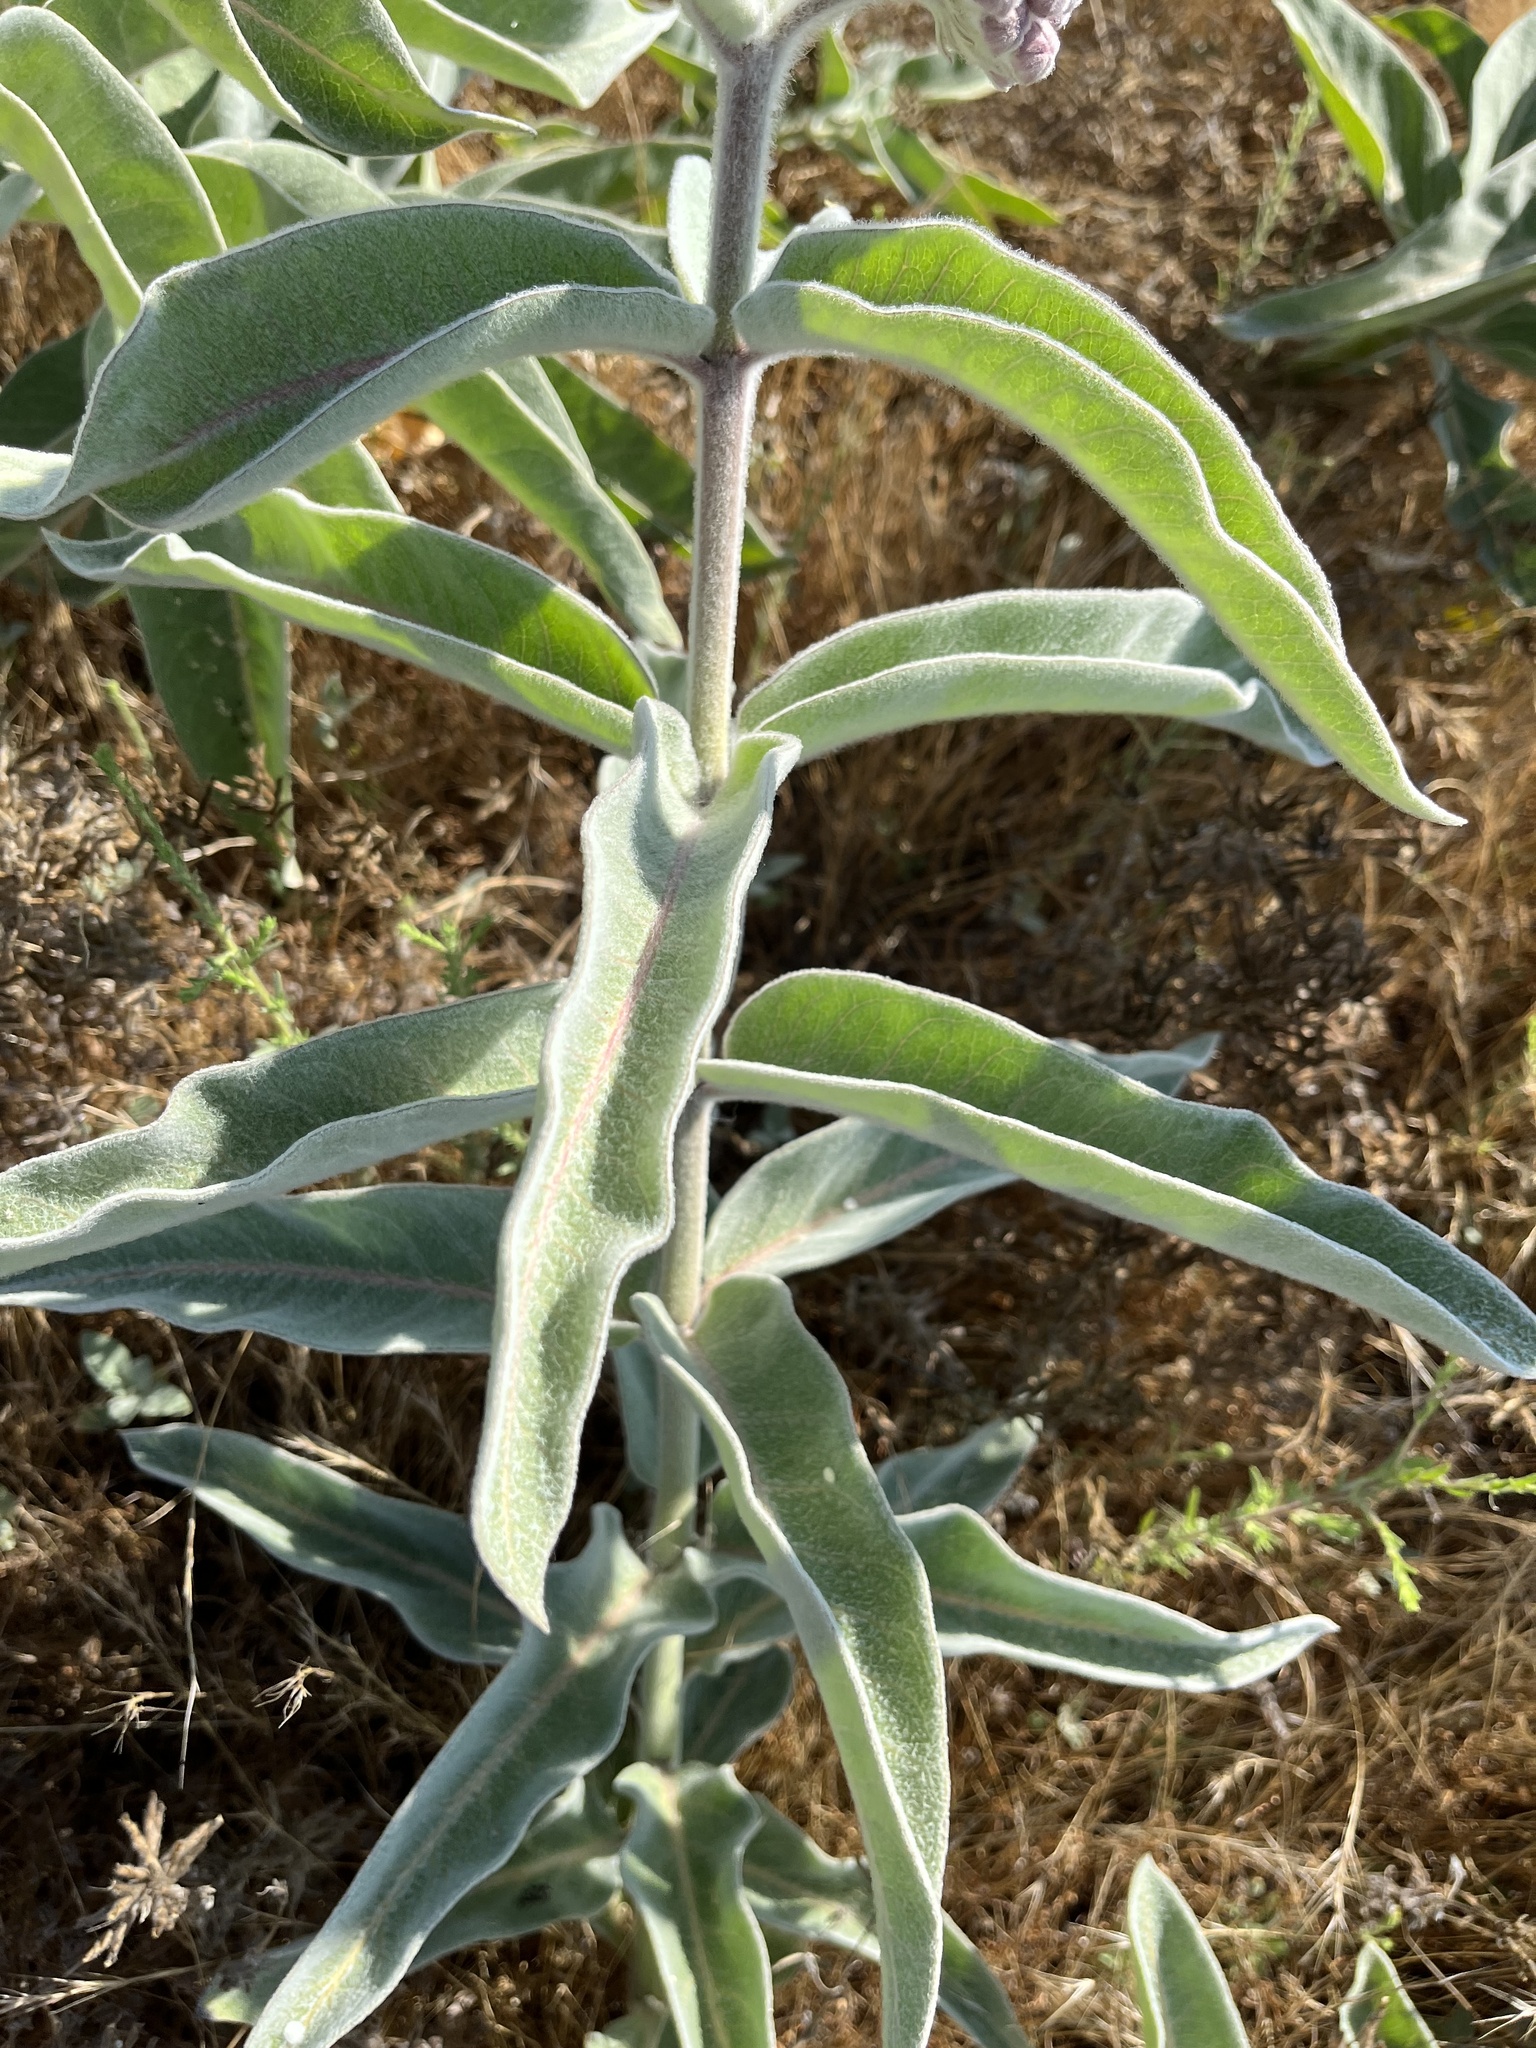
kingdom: Plantae
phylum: Tracheophyta
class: Magnoliopsida
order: Gentianales
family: Apocynaceae
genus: Asclepias
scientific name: Asclepias eriocarpa
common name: Indian milkweed
